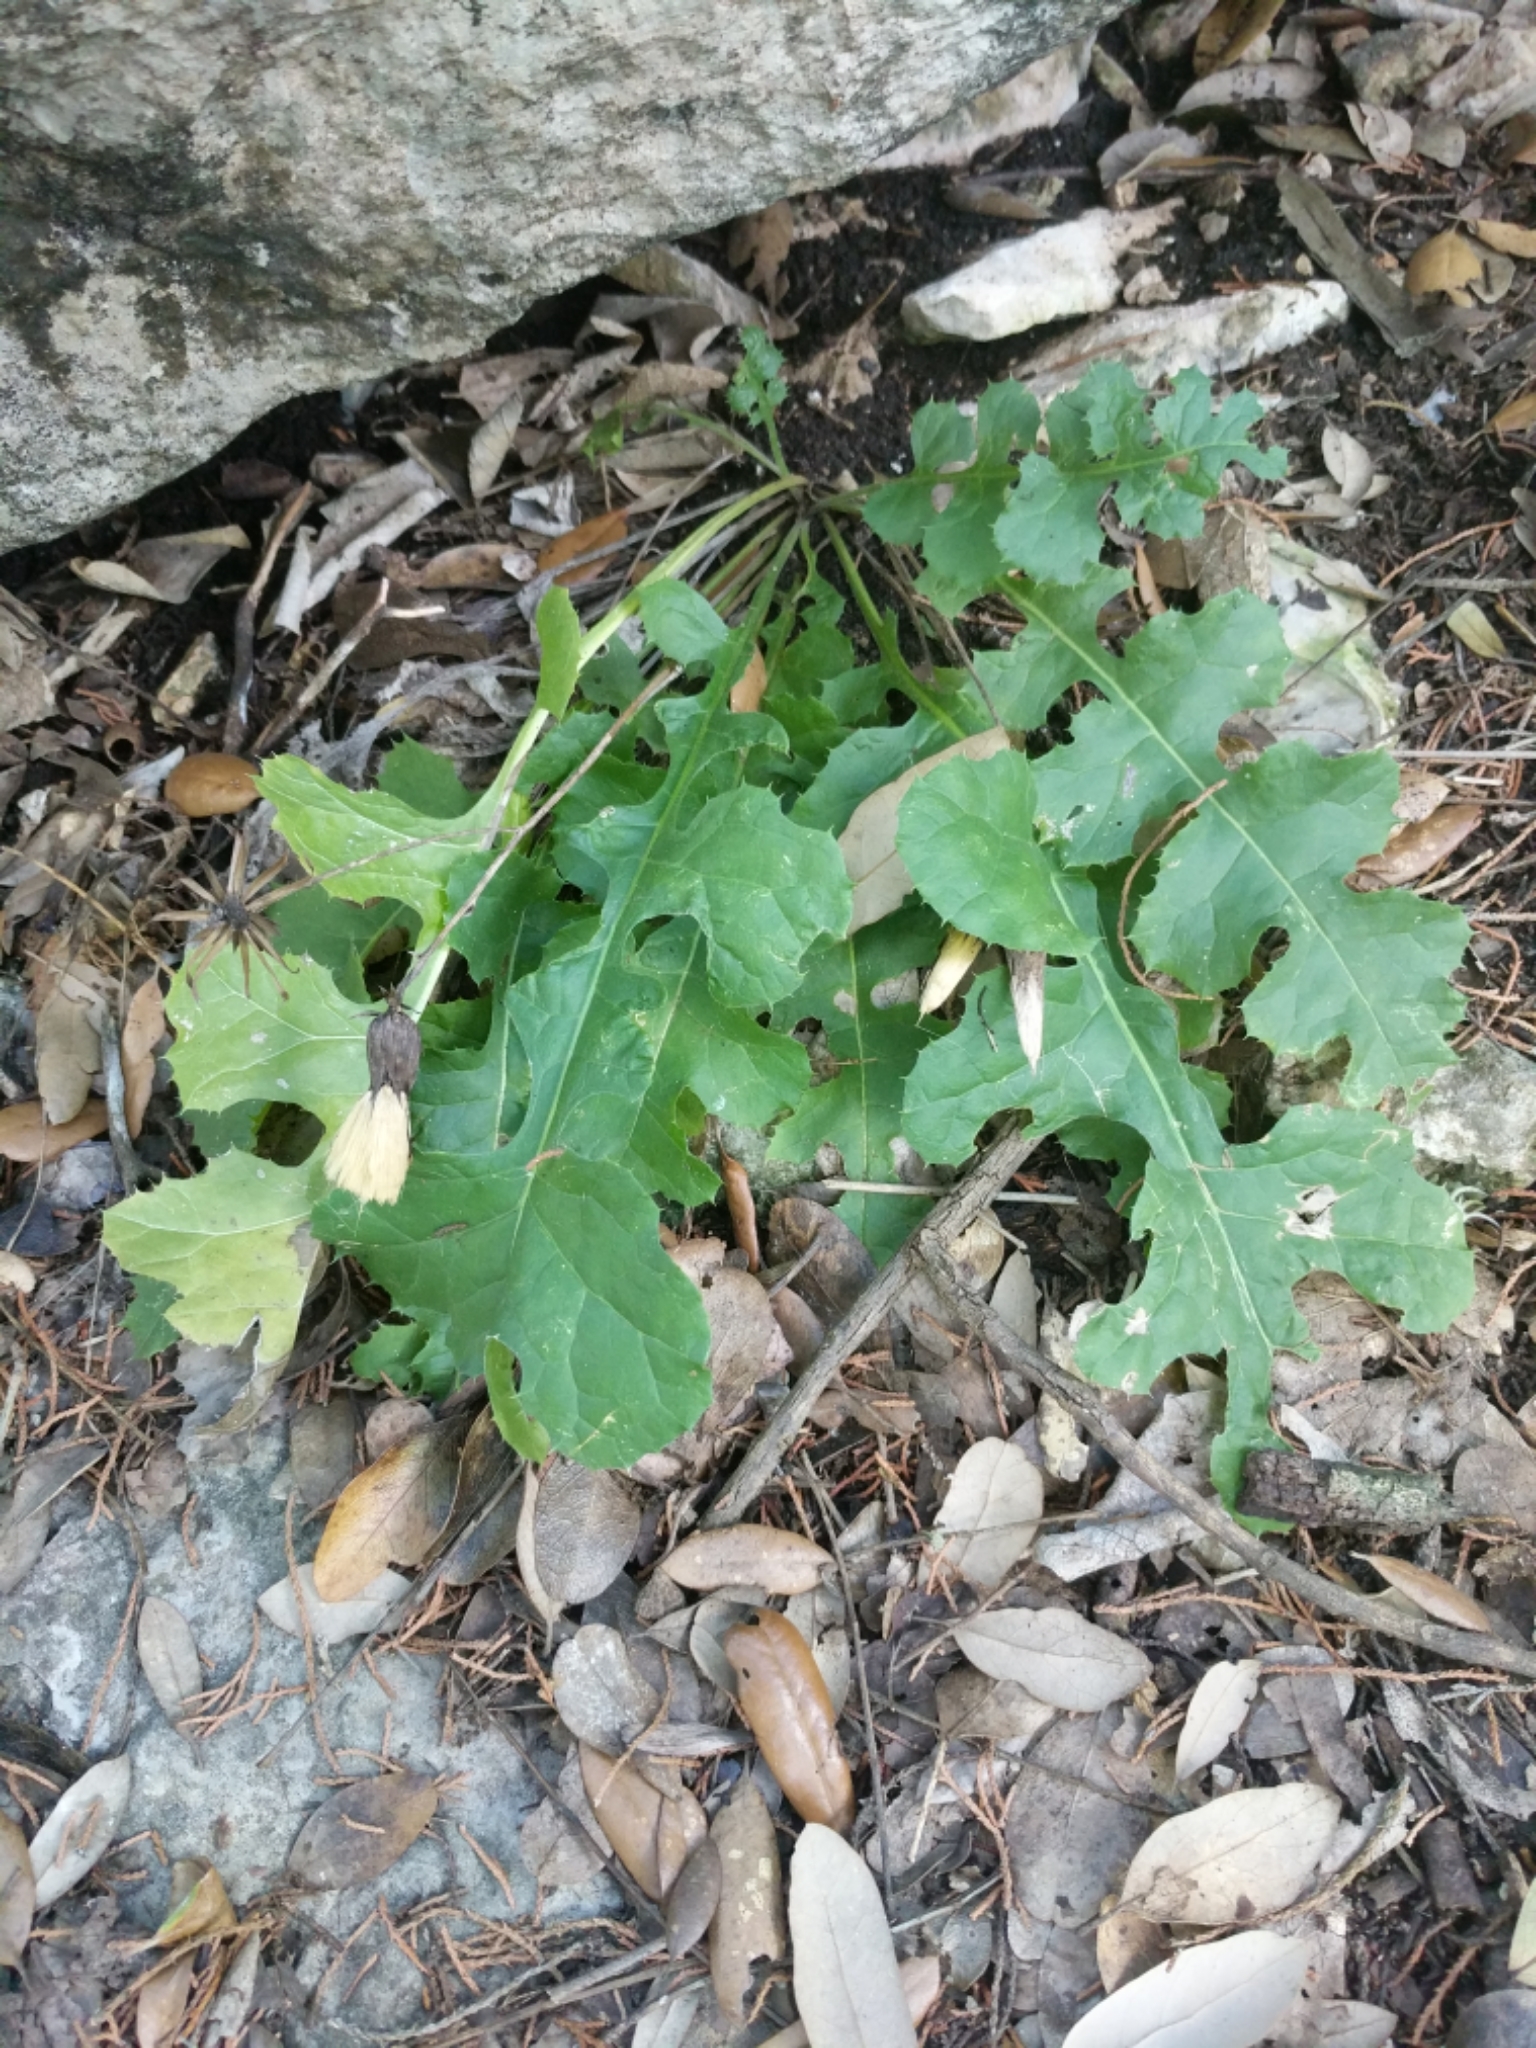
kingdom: Plantae
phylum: Tracheophyta
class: Magnoliopsida
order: Asterales
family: Asteraceae
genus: Acourtia
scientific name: Acourtia runcinata
